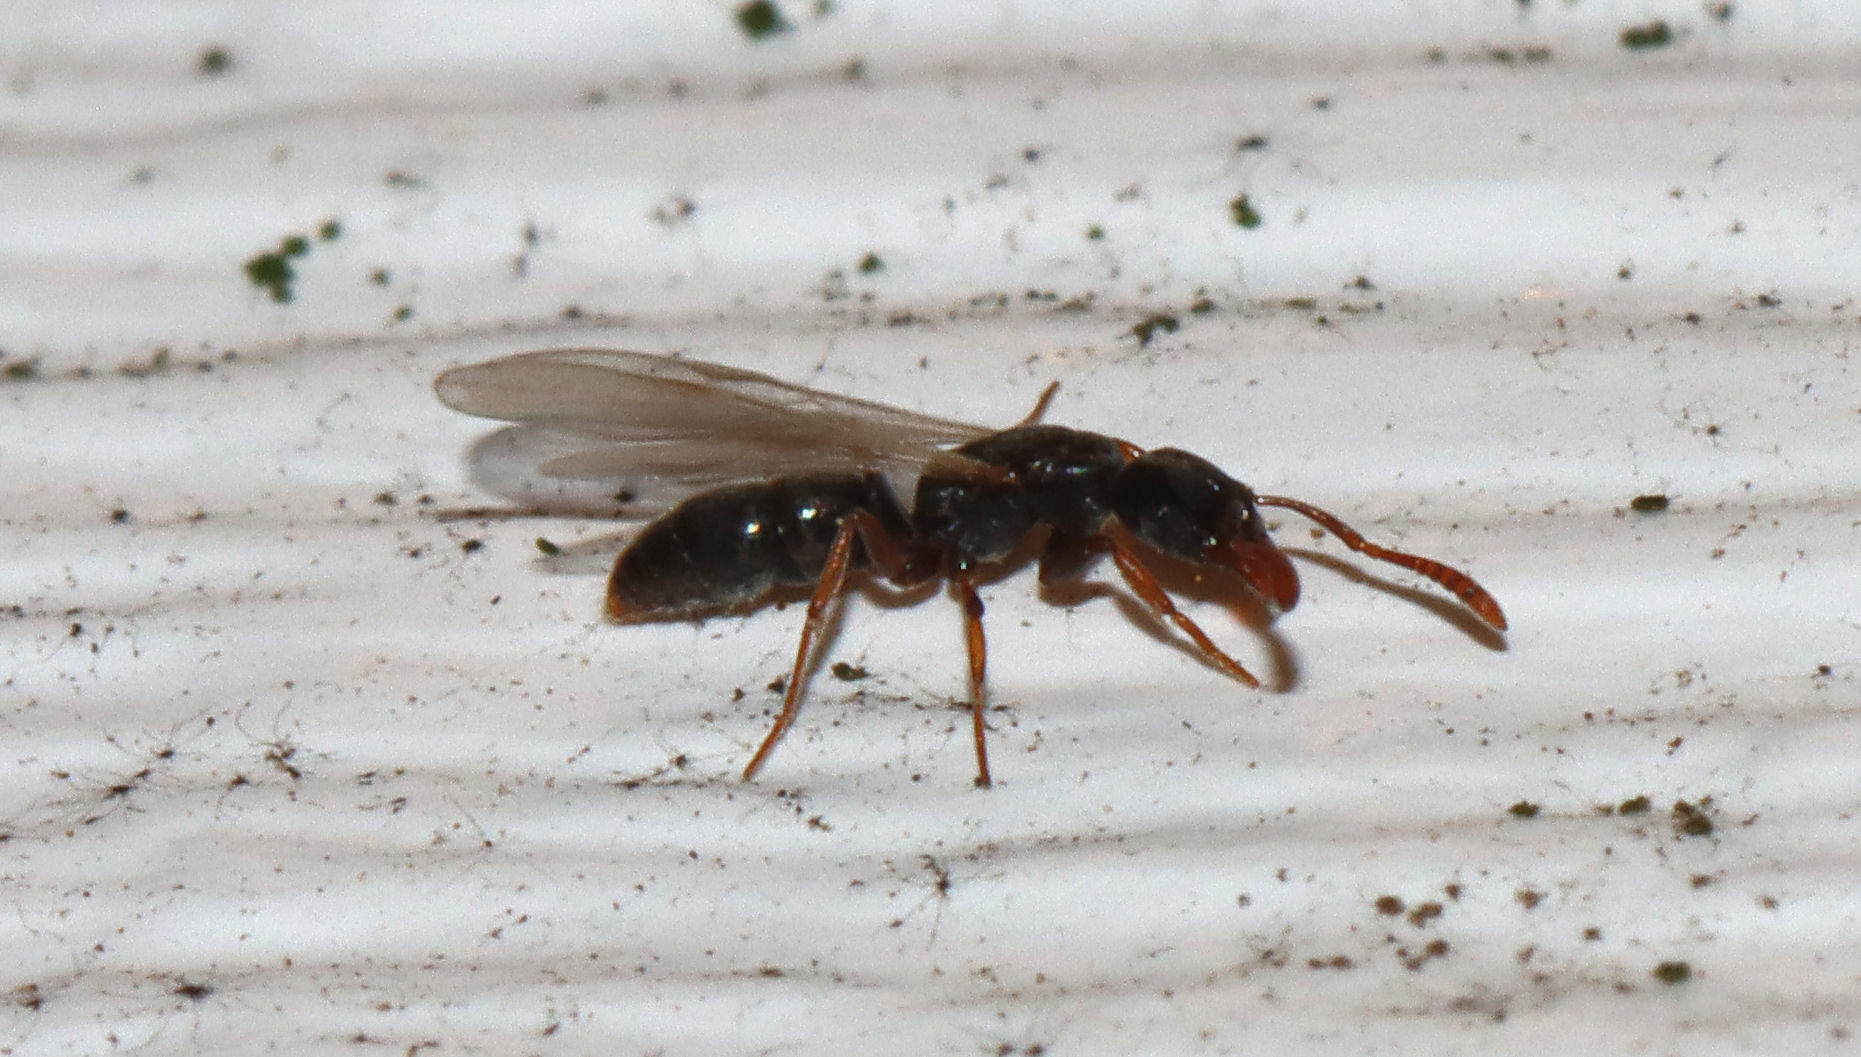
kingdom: Animalia
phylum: Arthropoda
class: Insecta
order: Hymenoptera
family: Formicidae
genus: Hypoponera
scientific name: Hypoponera opacior
